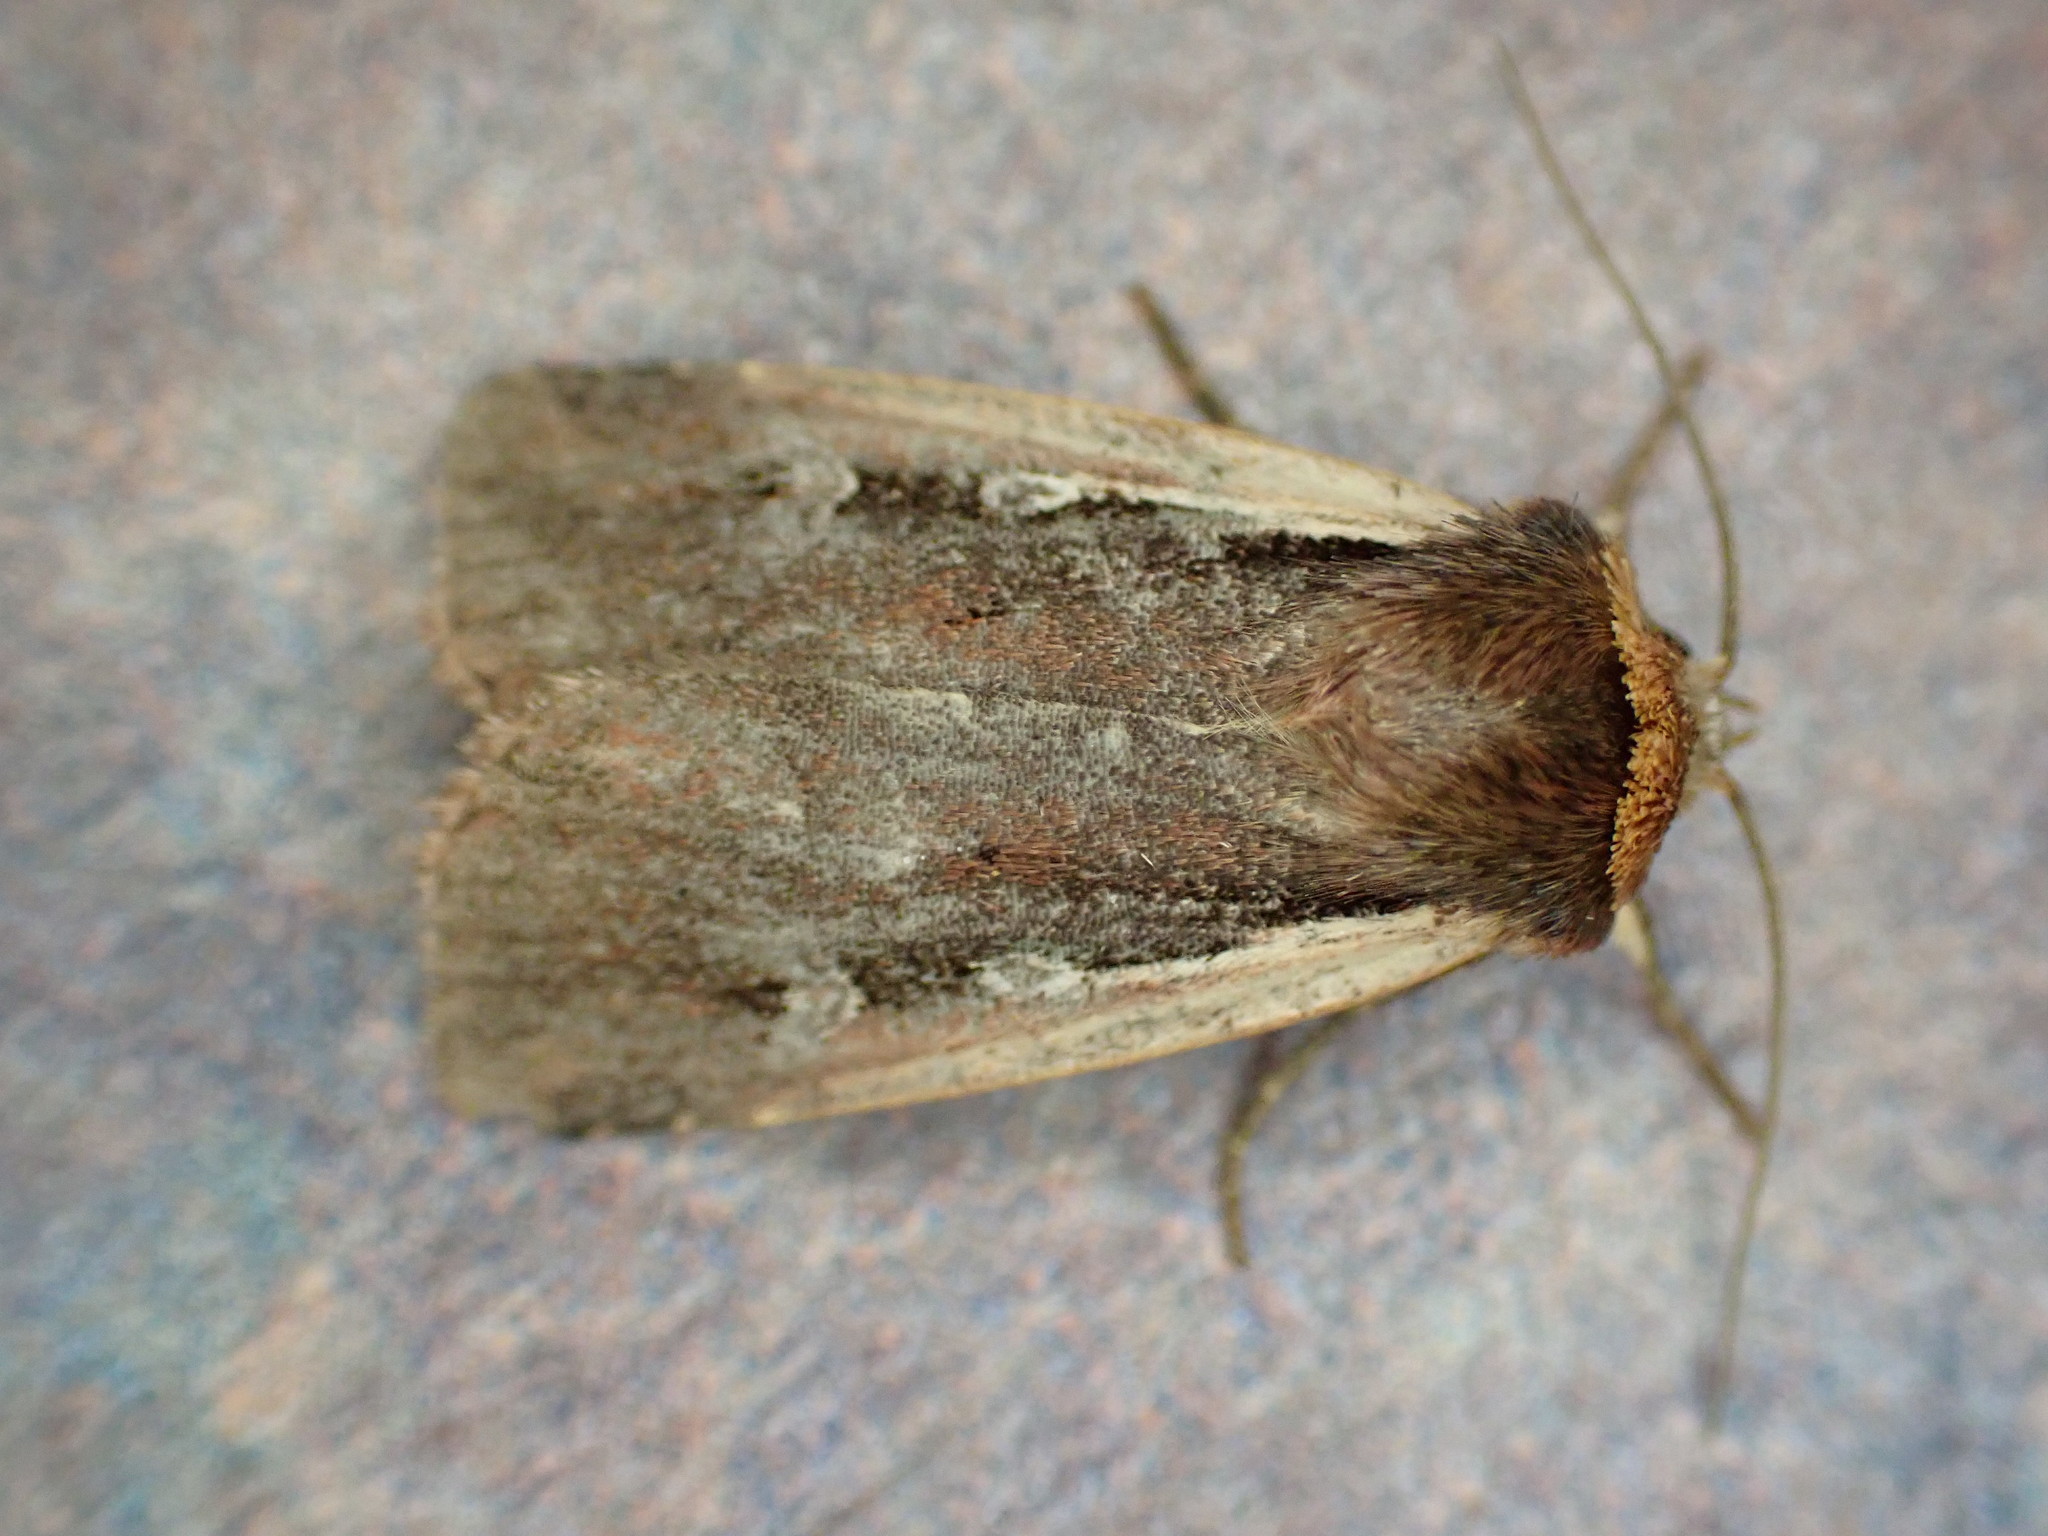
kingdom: Animalia
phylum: Arthropoda
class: Insecta
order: Lepidoptera
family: Noctuidae
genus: Ochropleura
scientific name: Ochropleura plecta
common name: Flame shoulder
